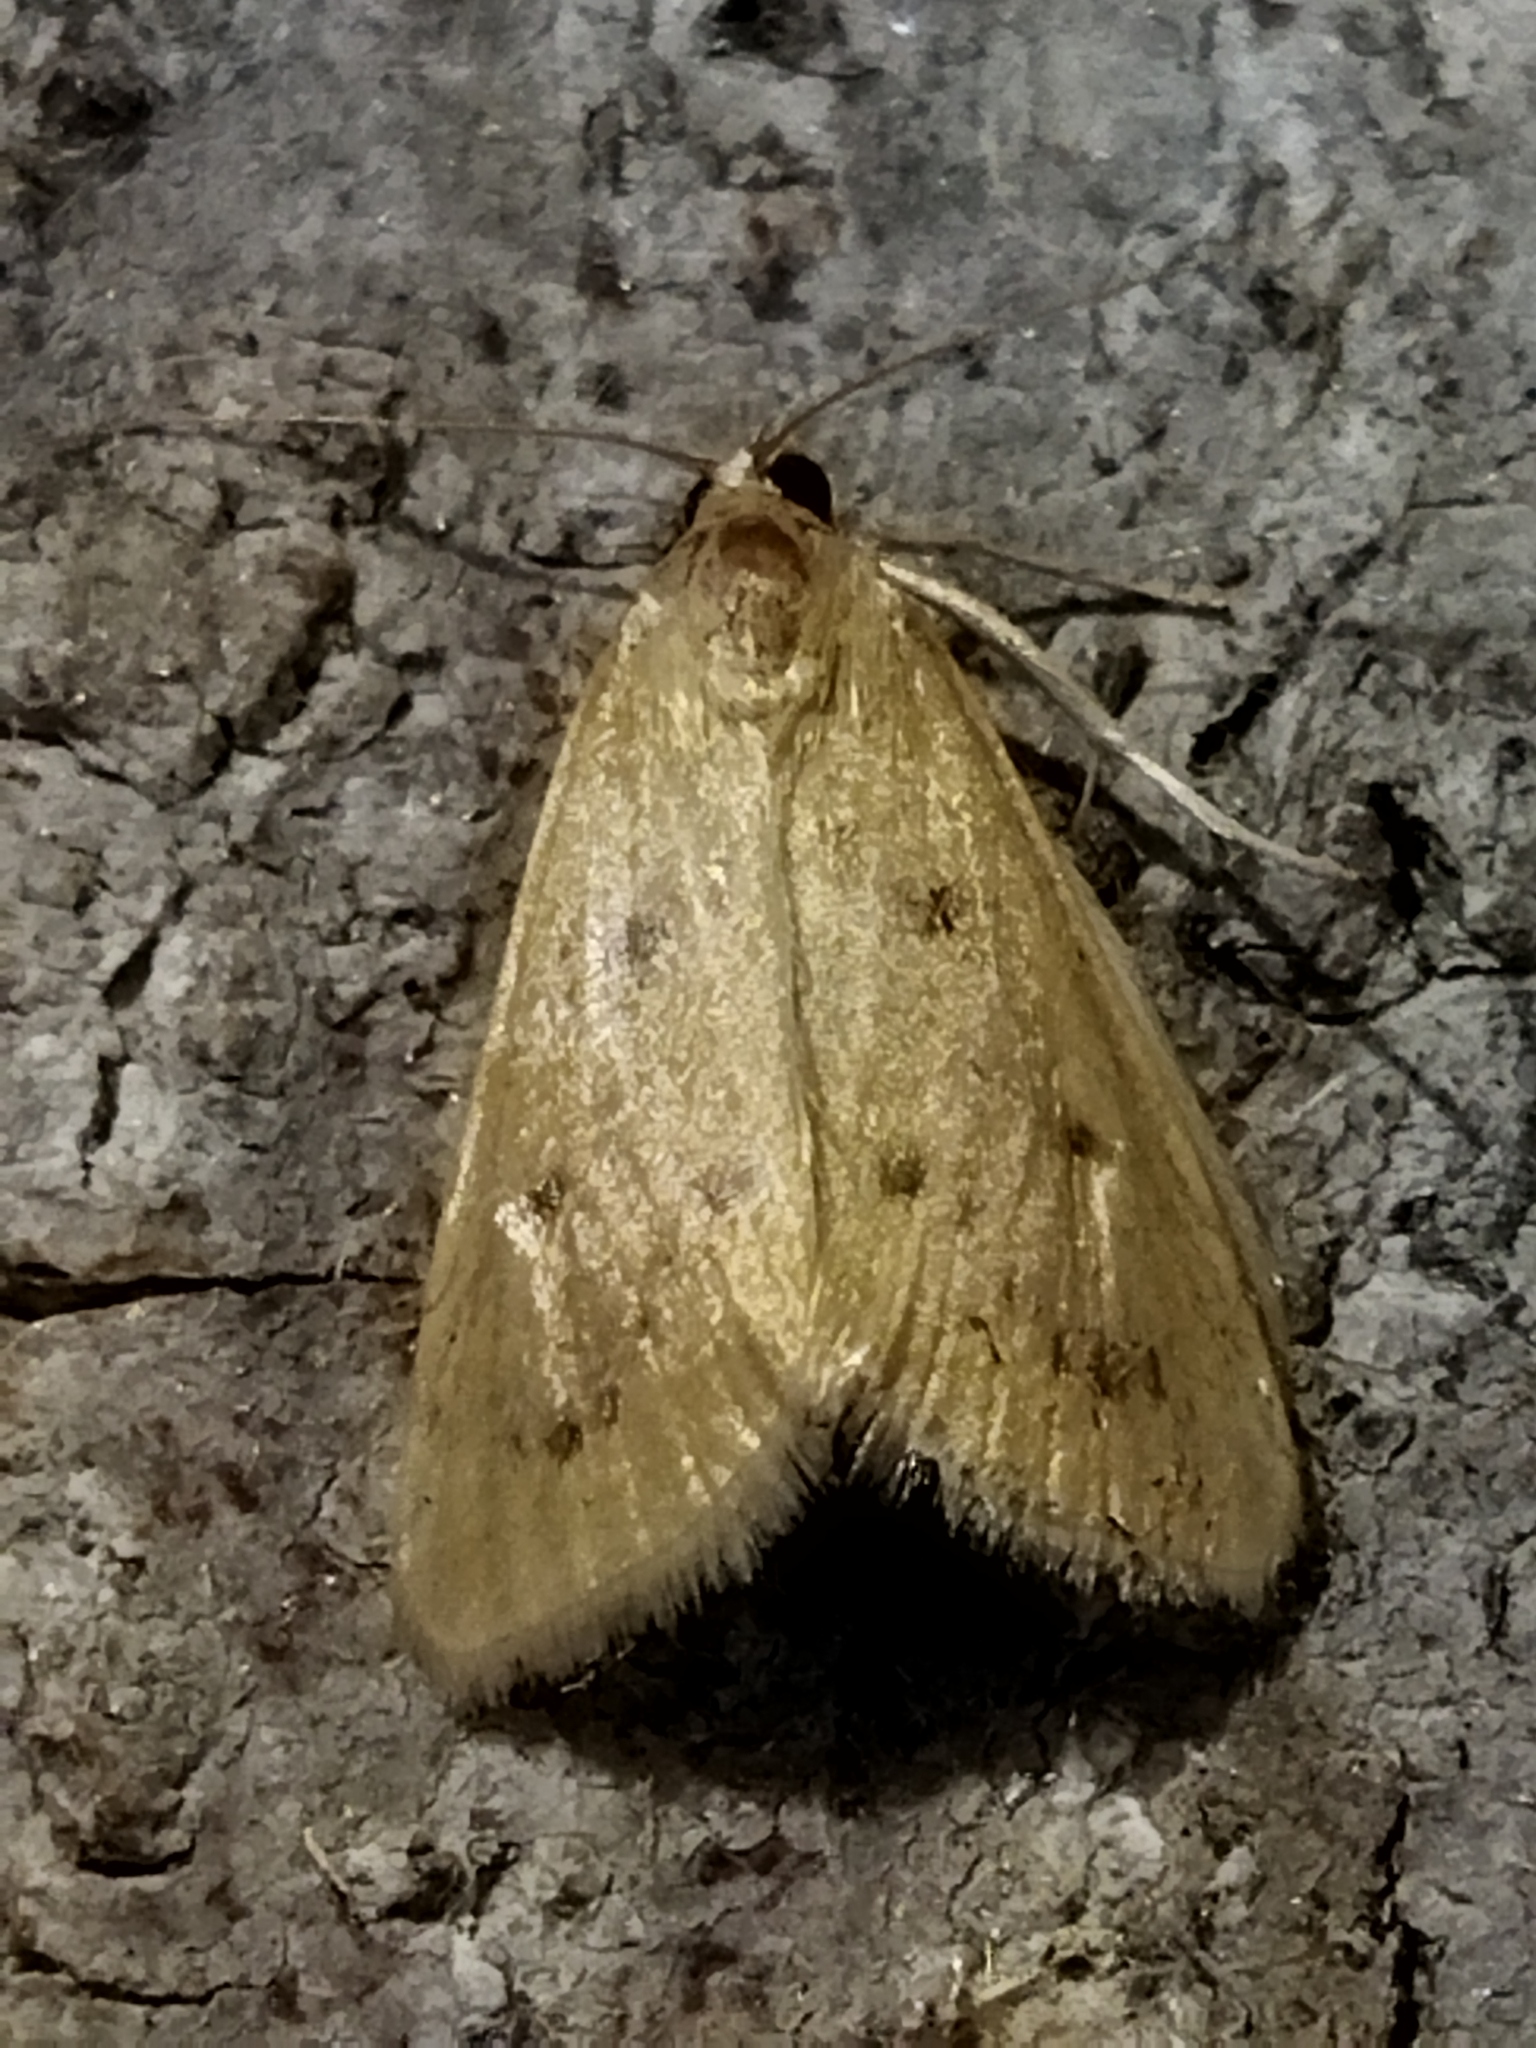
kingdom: Animalia
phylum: Arthropoda
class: Insecta
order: Lepidoptera
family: Crambidae
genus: Achyra
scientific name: Achyra nudalis
